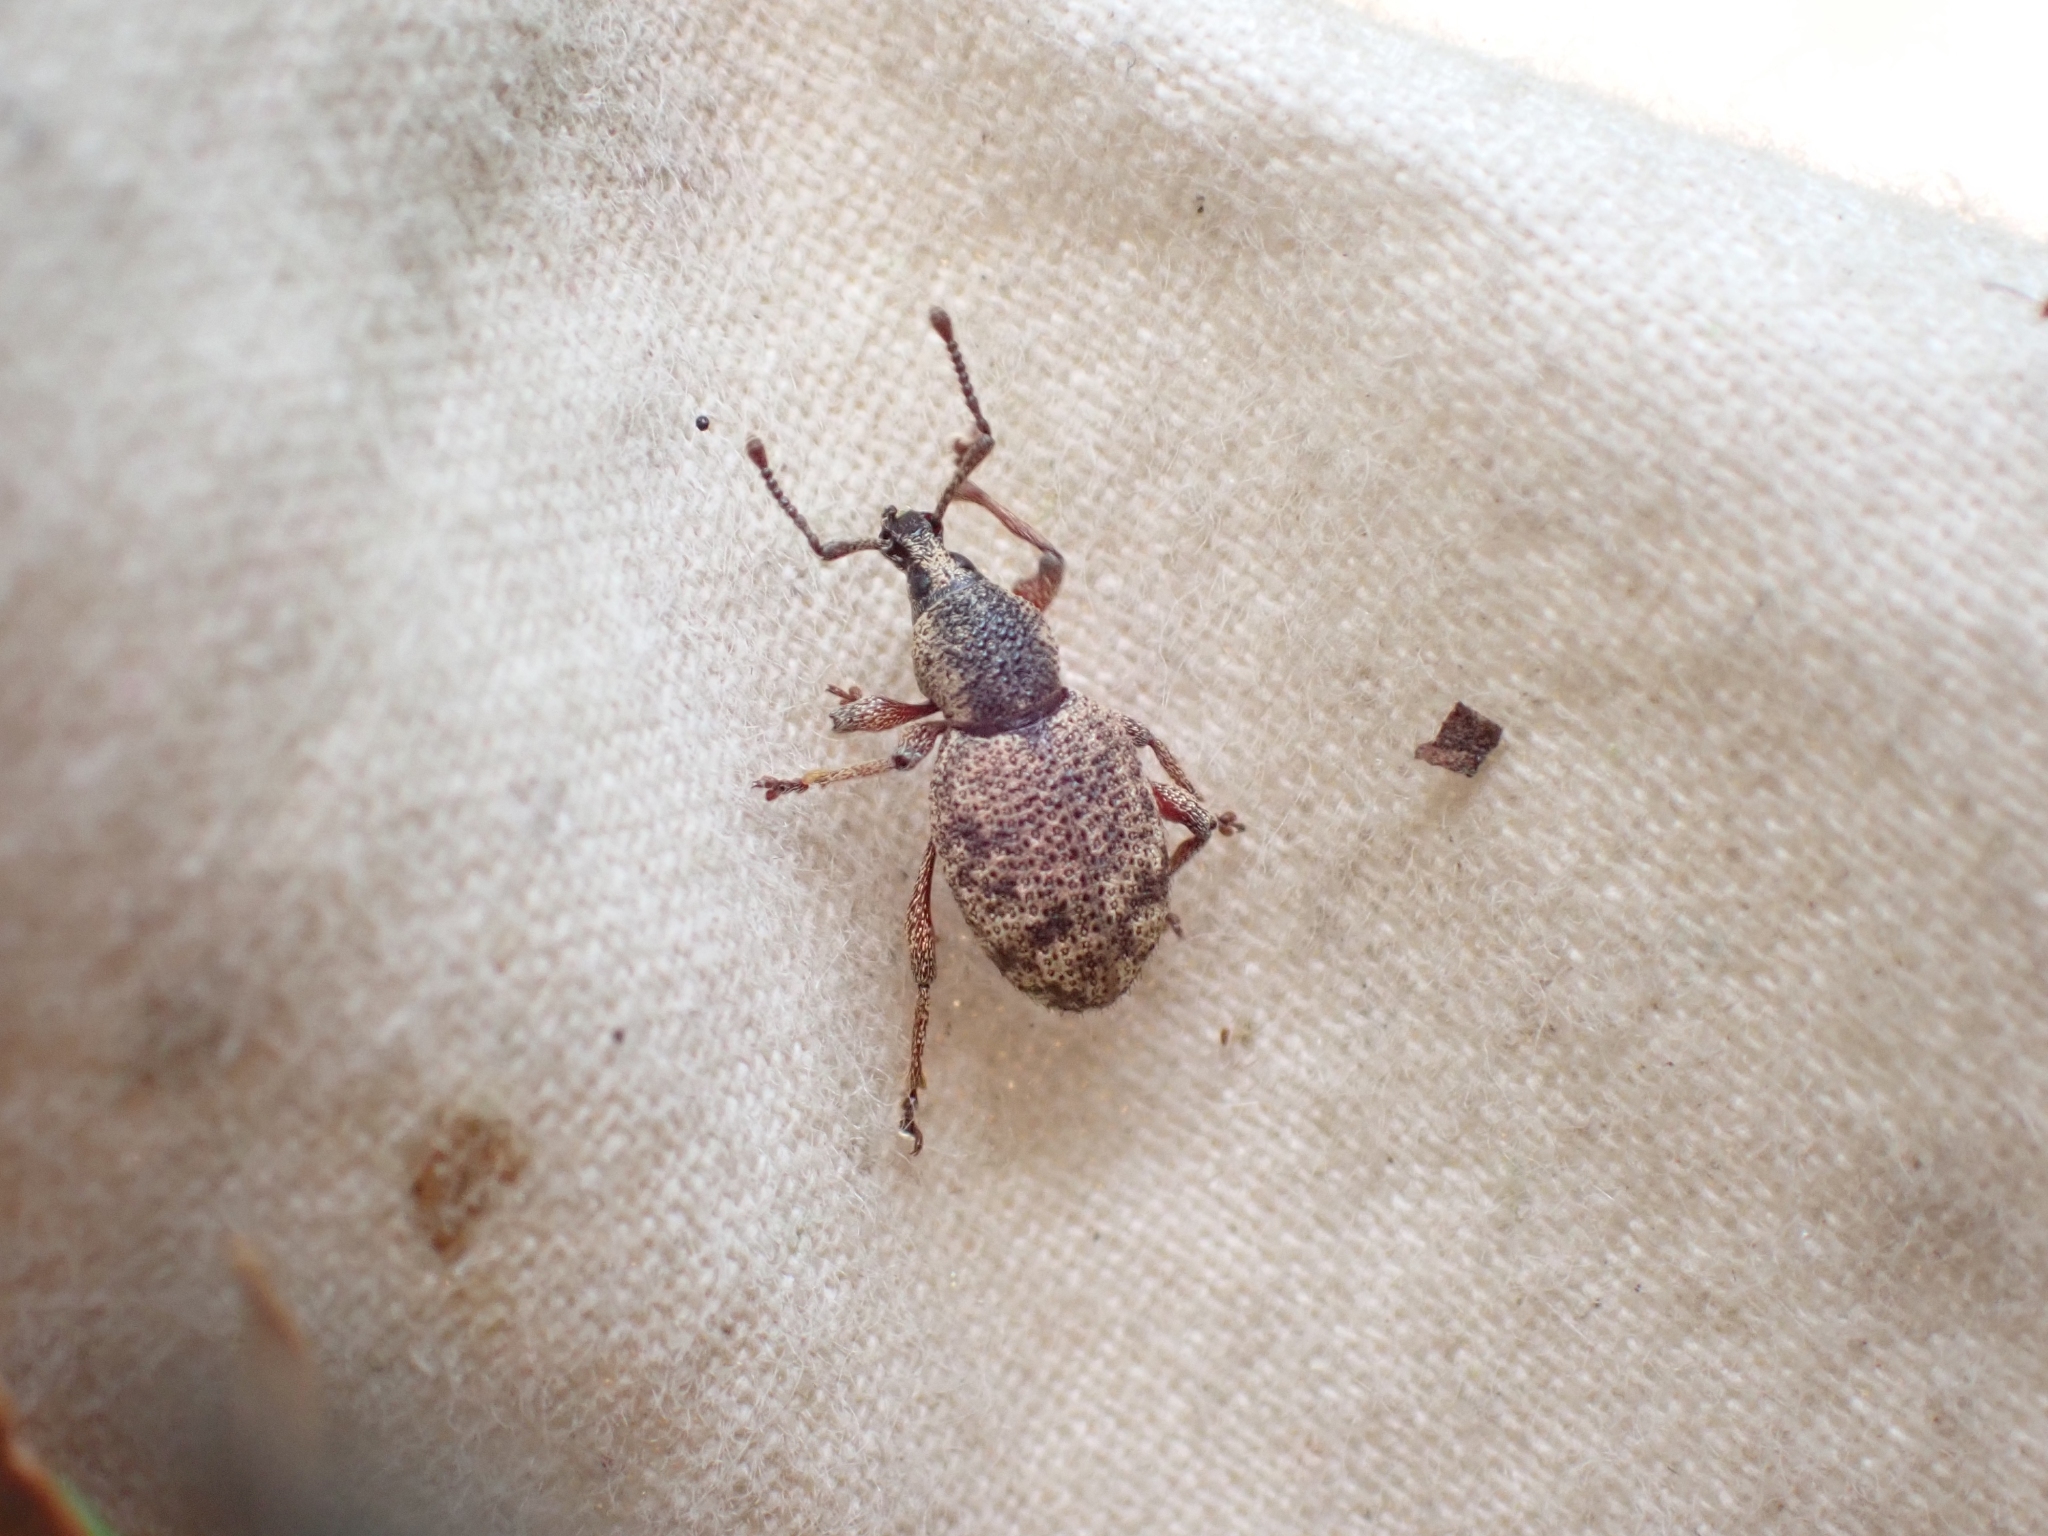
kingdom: Animalia
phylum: Arthropoda
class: Insecta
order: Coleoptera
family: Curculionidae
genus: Otiorhynchus
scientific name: Otiorhynchus singularis
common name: Clay-coloured weevil
